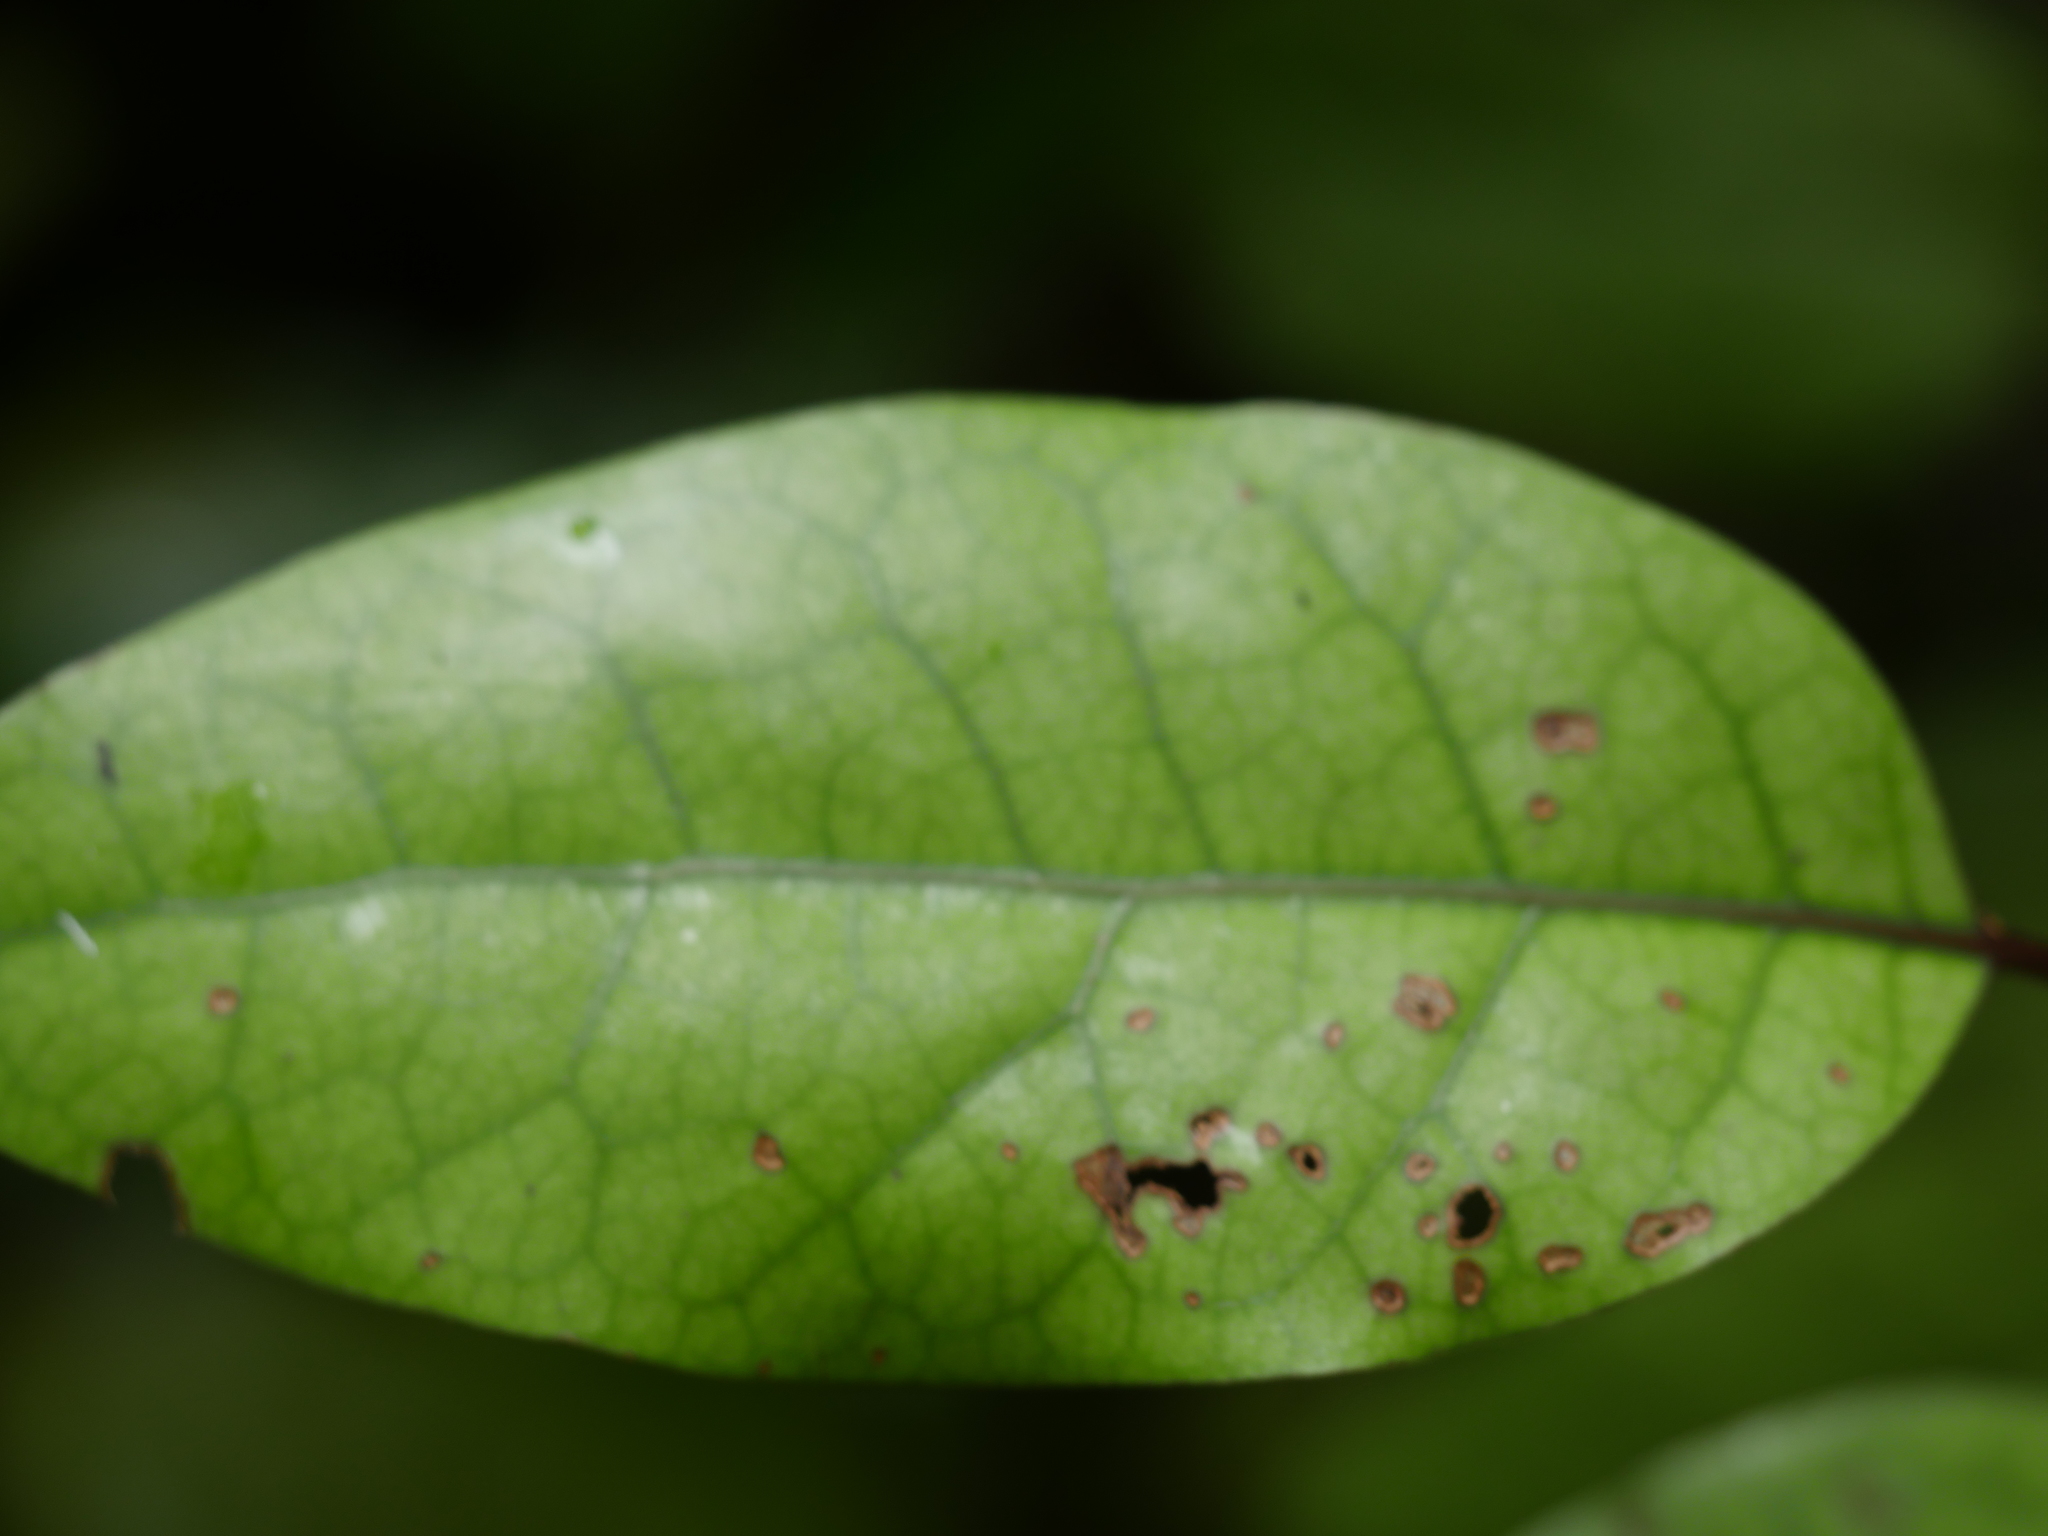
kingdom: Plantae
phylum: Tracheophyta
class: Magnoliopsida
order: Laurales
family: Lauraceae
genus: Litsea
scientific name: Litsea calicaris
